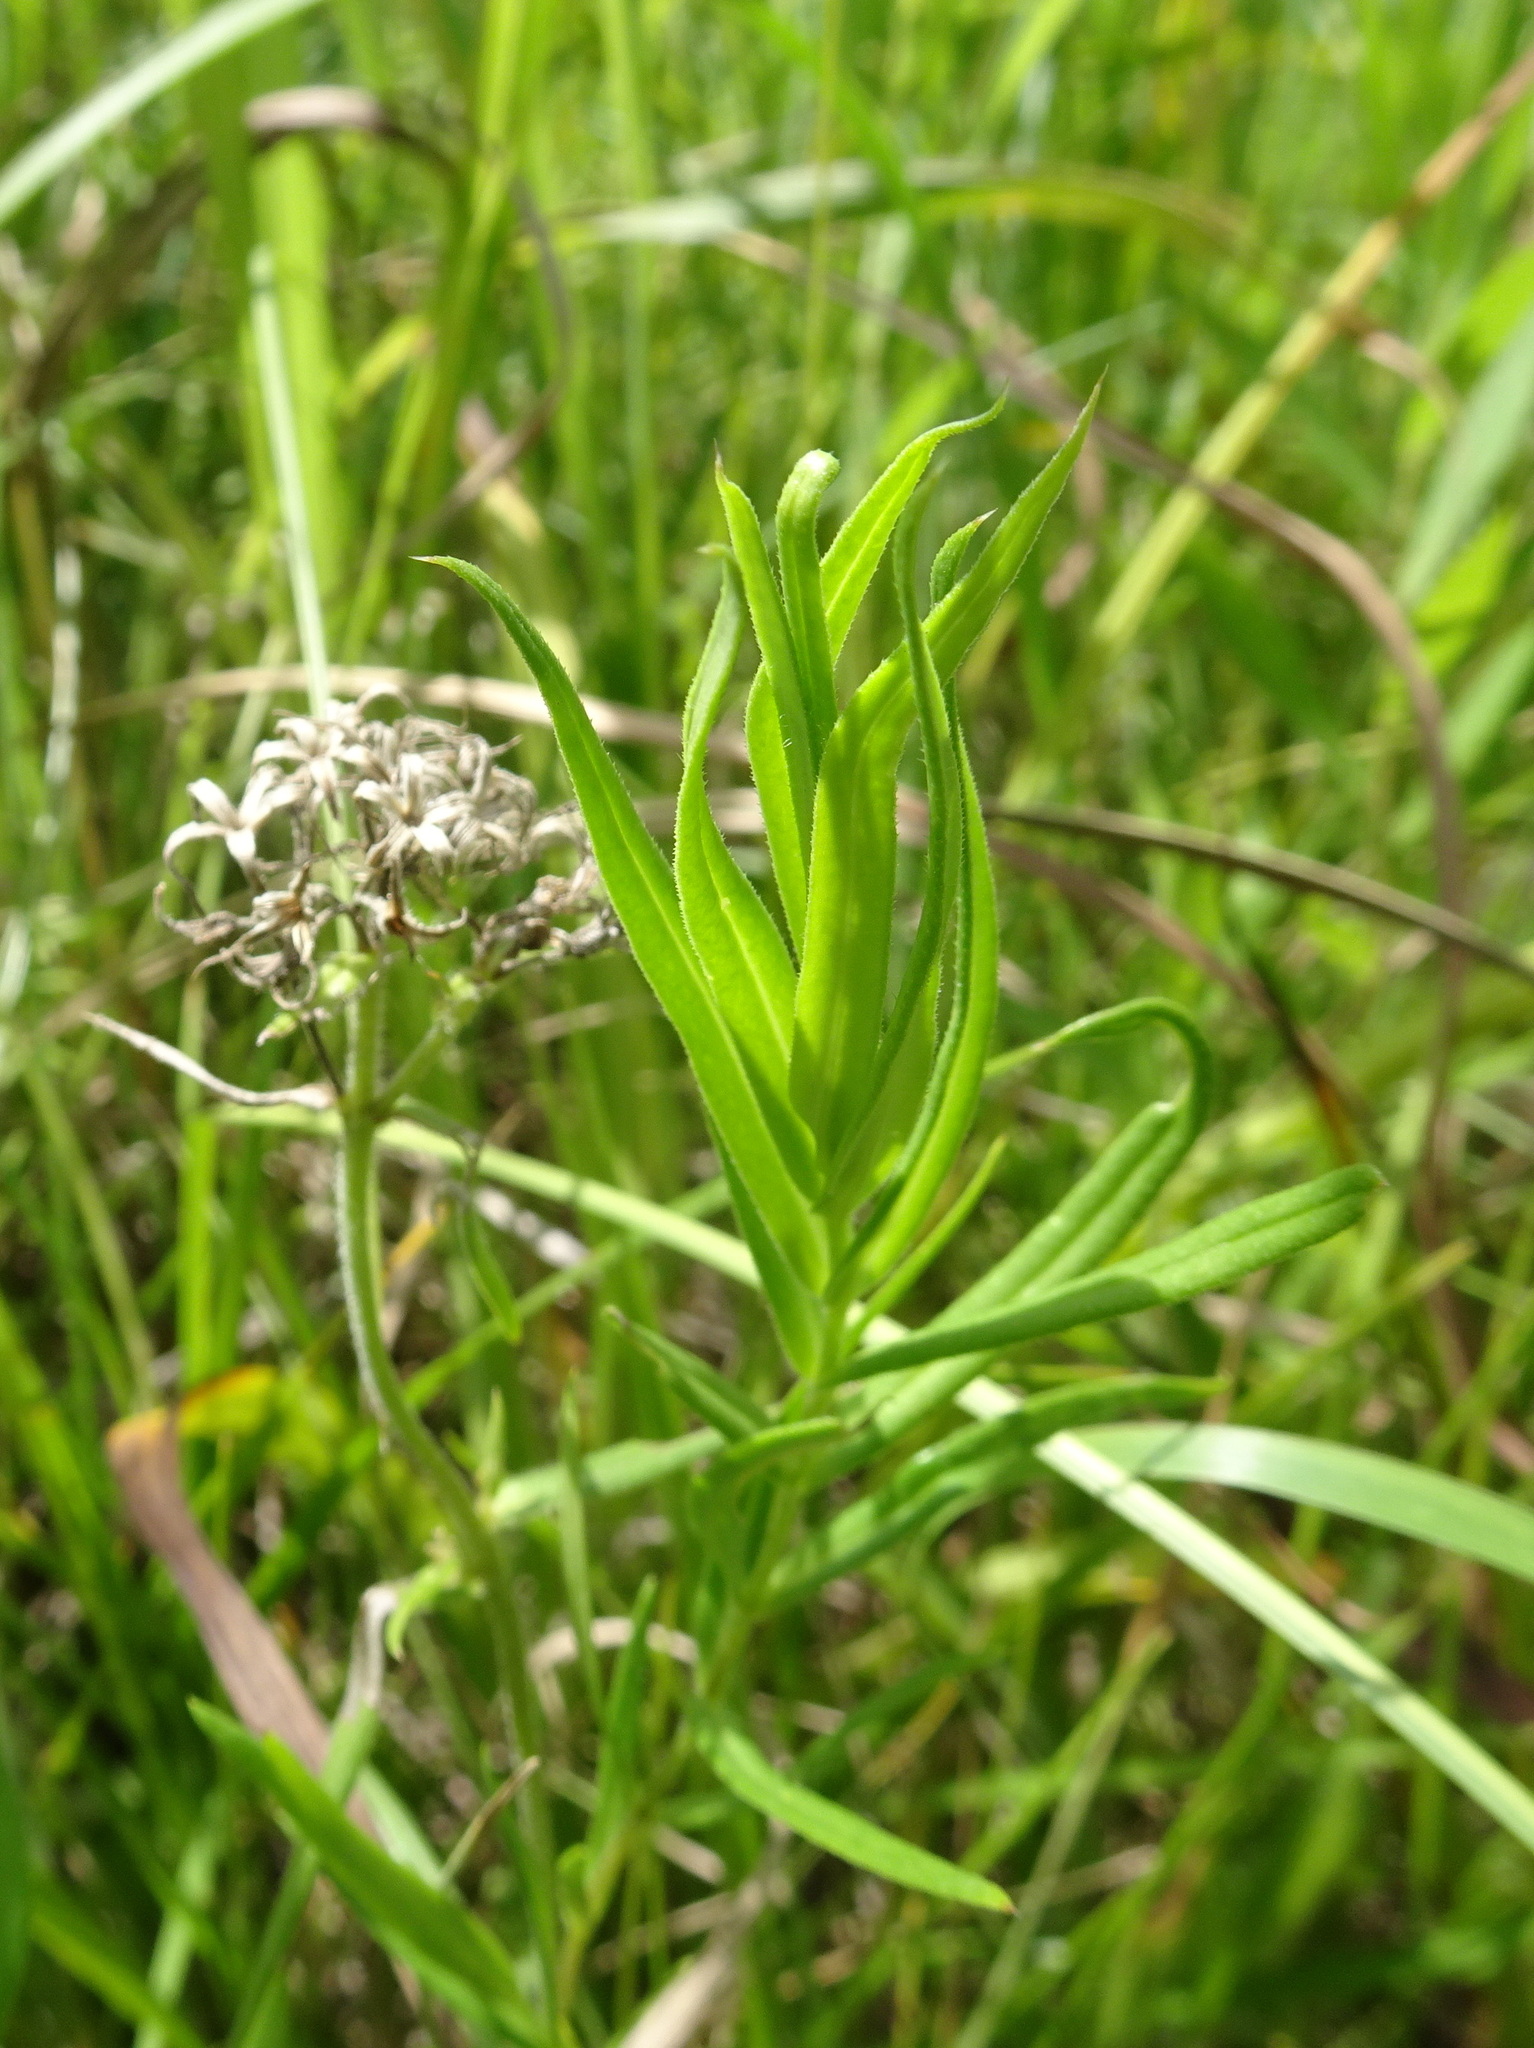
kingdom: Plantae
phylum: Tracheophyta
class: Magnoliopsida
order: Ericales
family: Polemoniaceae
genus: Phlox
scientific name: Phlox pilosa
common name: Prairie phlox
